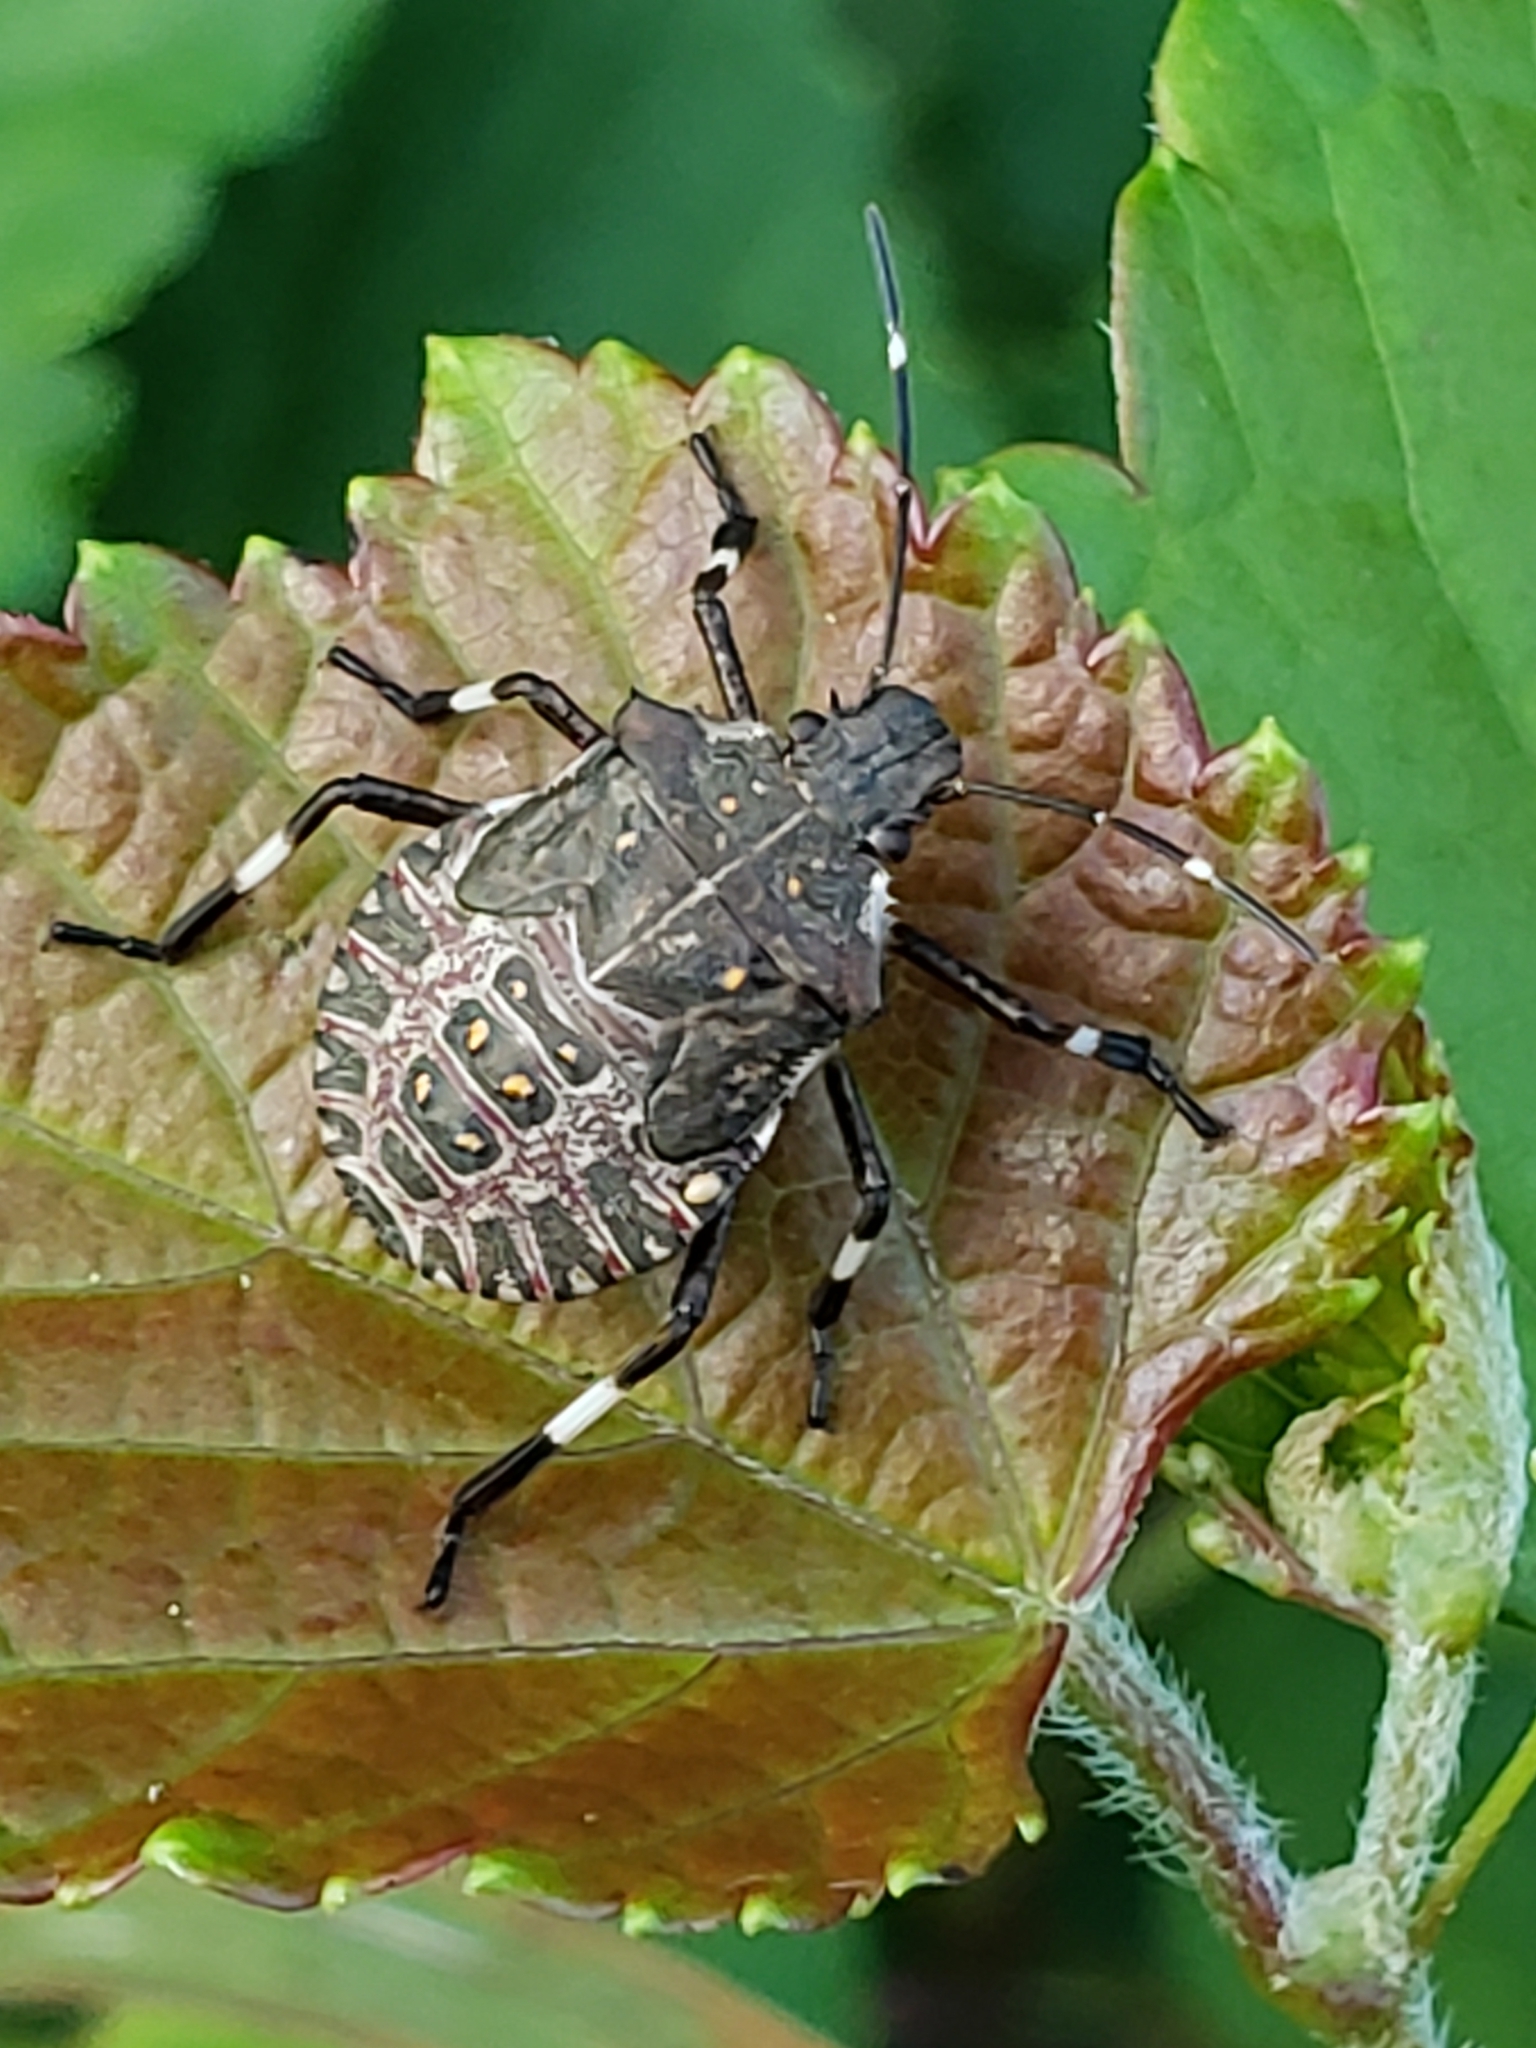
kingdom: Animalia
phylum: Arthropoda
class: Insecta
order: Hemiptera
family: Pentatomidae
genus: Halyomorpha
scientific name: Halyomorpha halys
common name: Brown marmorated stink bug
